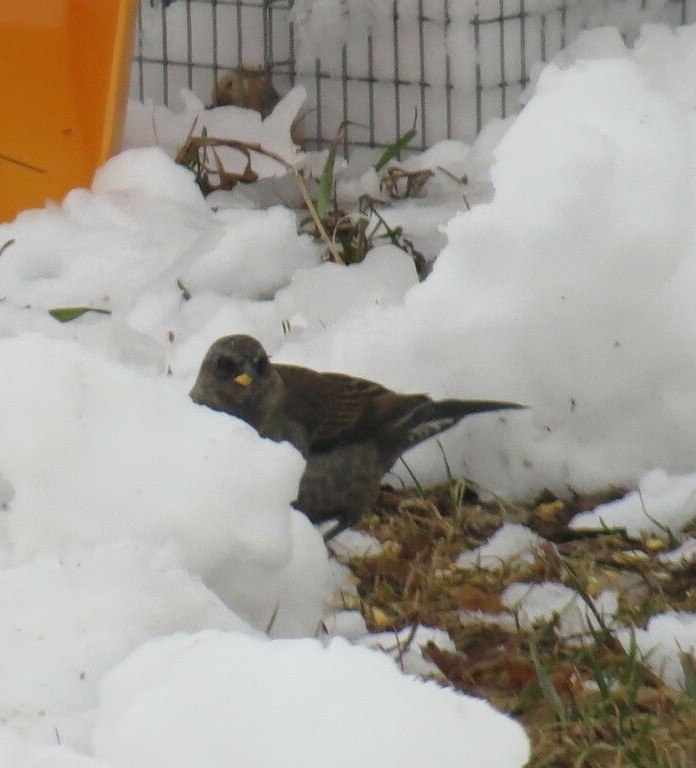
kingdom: Animalia
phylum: Chordata
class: Aves
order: Passeriformes
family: Icteridae
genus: Euphagus
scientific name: Euphagus carolinus
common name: Rusty blackbird
